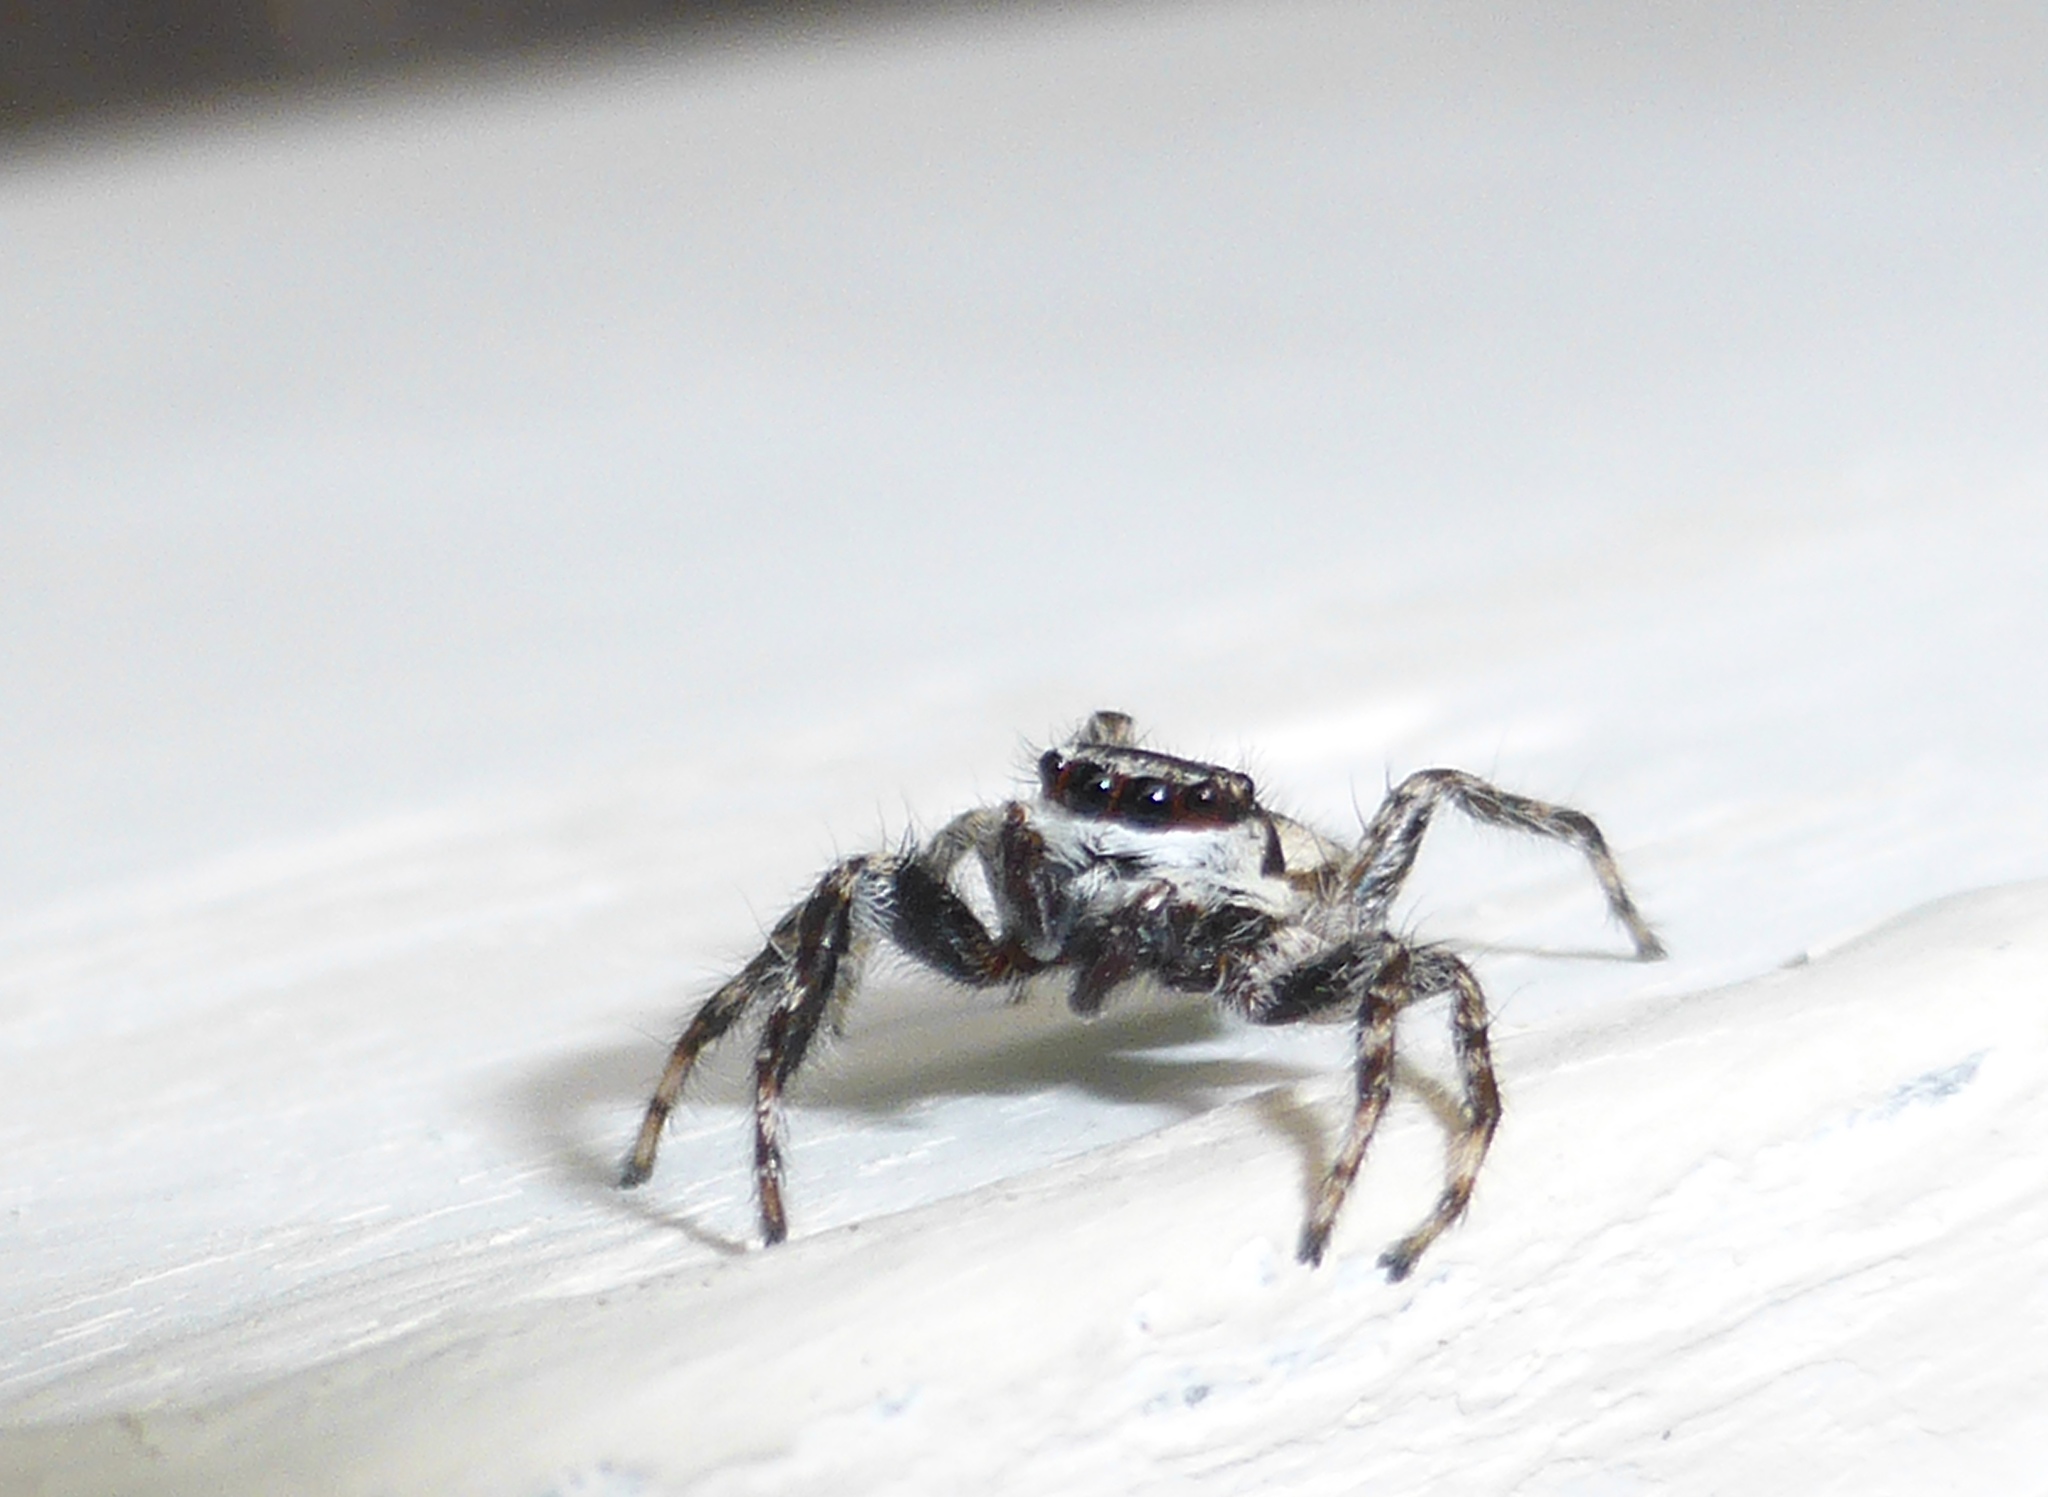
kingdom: Animalia
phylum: Arthropoda
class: Arachnida
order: Araneae
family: Salticidae
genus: Menemerus
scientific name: Menemerus bivittatus
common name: Gray wall jumper
